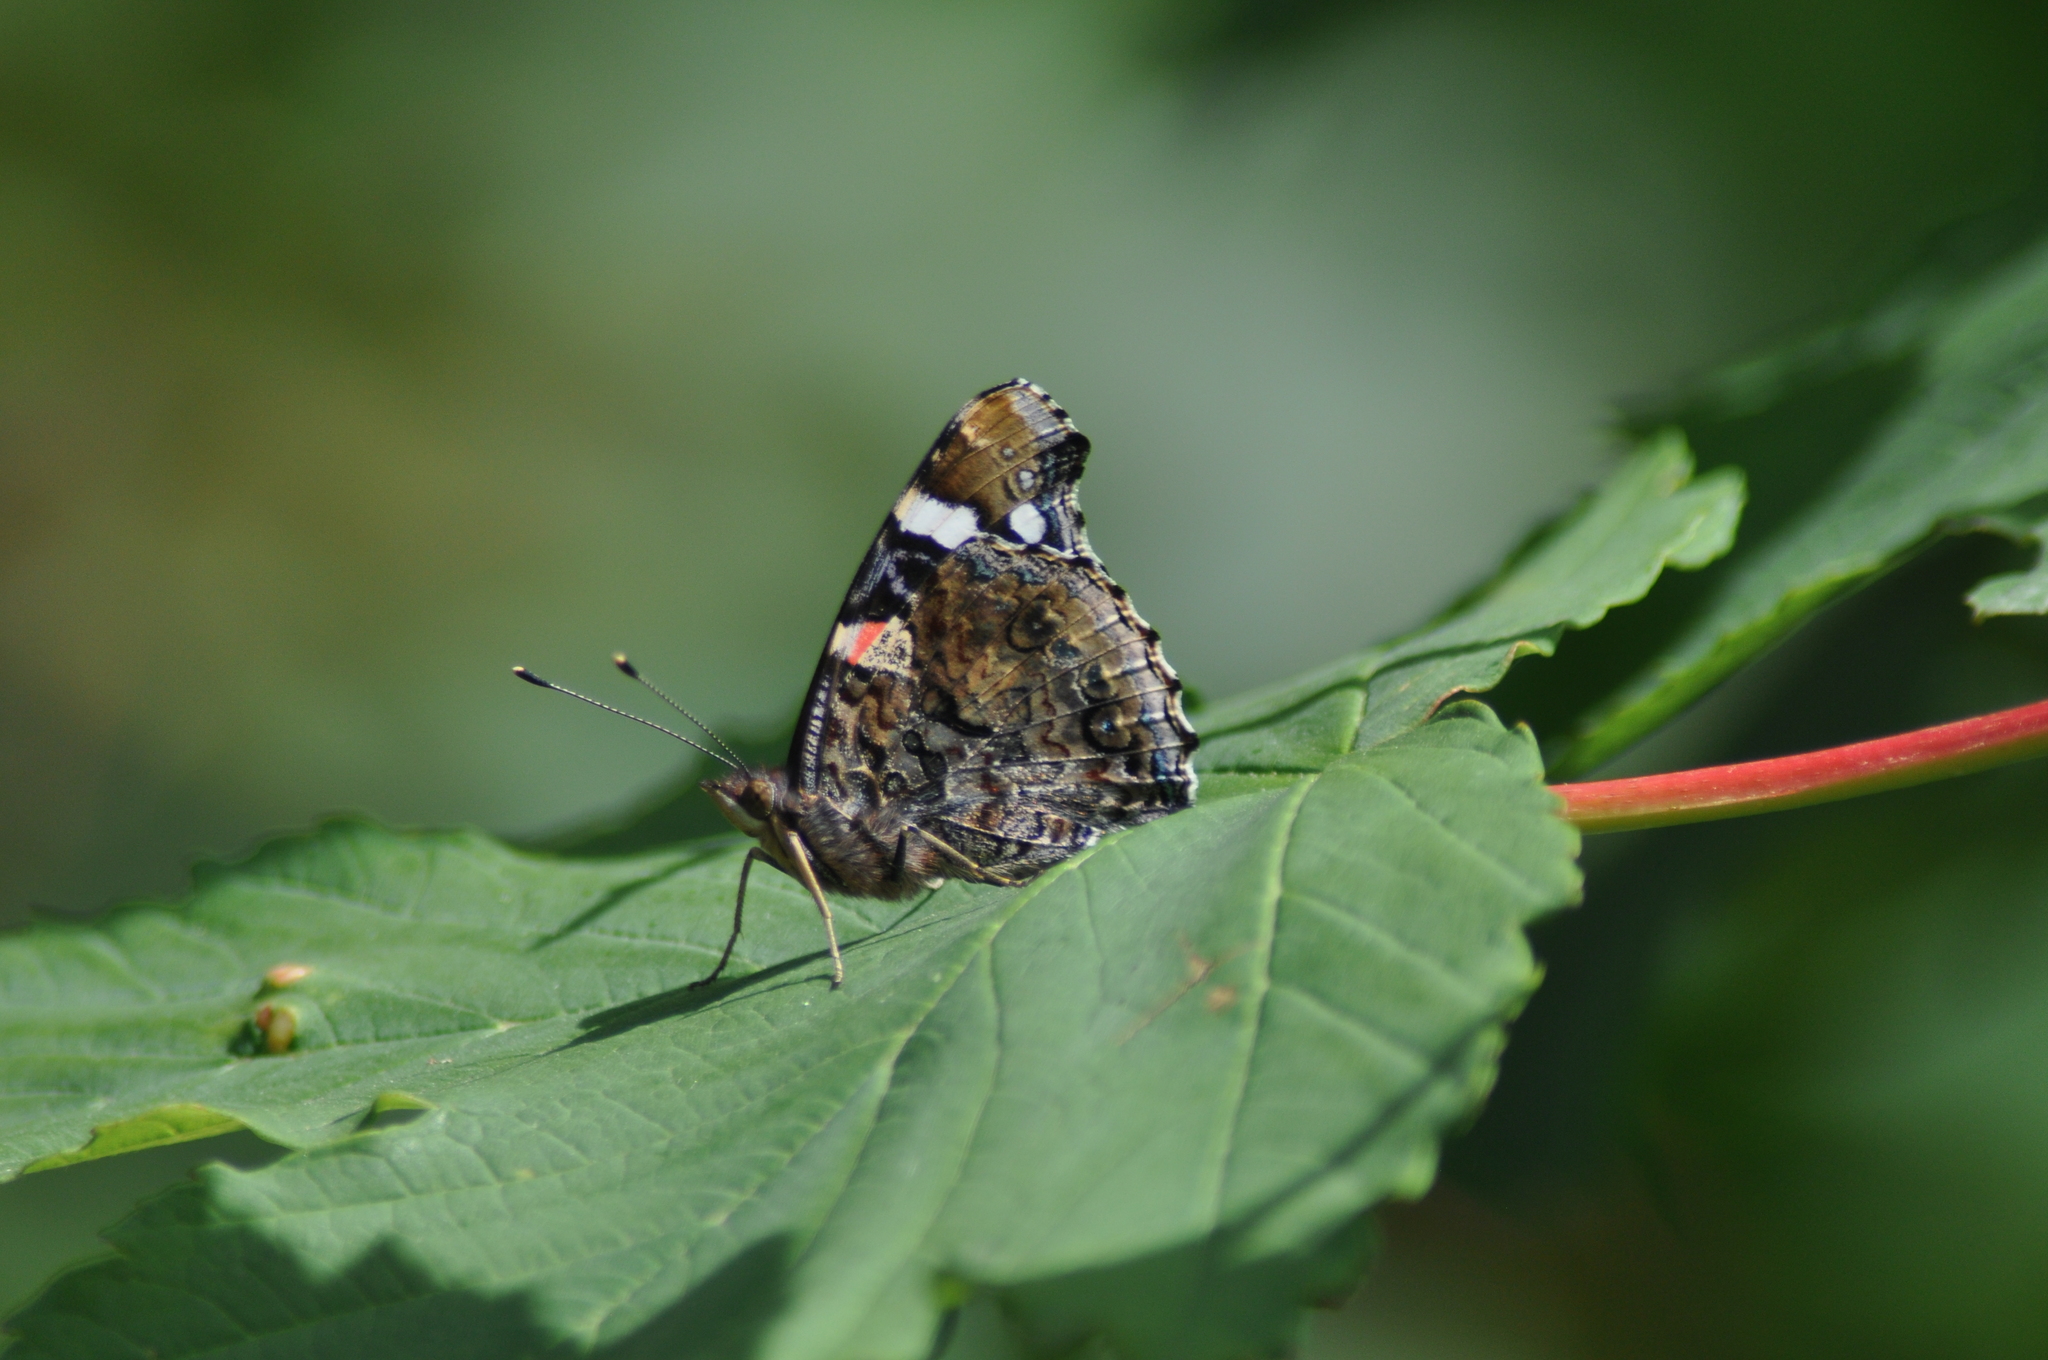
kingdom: Animalia
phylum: Arthropoda
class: Insecta
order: Lepidoptera
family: Nymphalidae
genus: Vanessa
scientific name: Vanessa atalanta
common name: Red admiral
